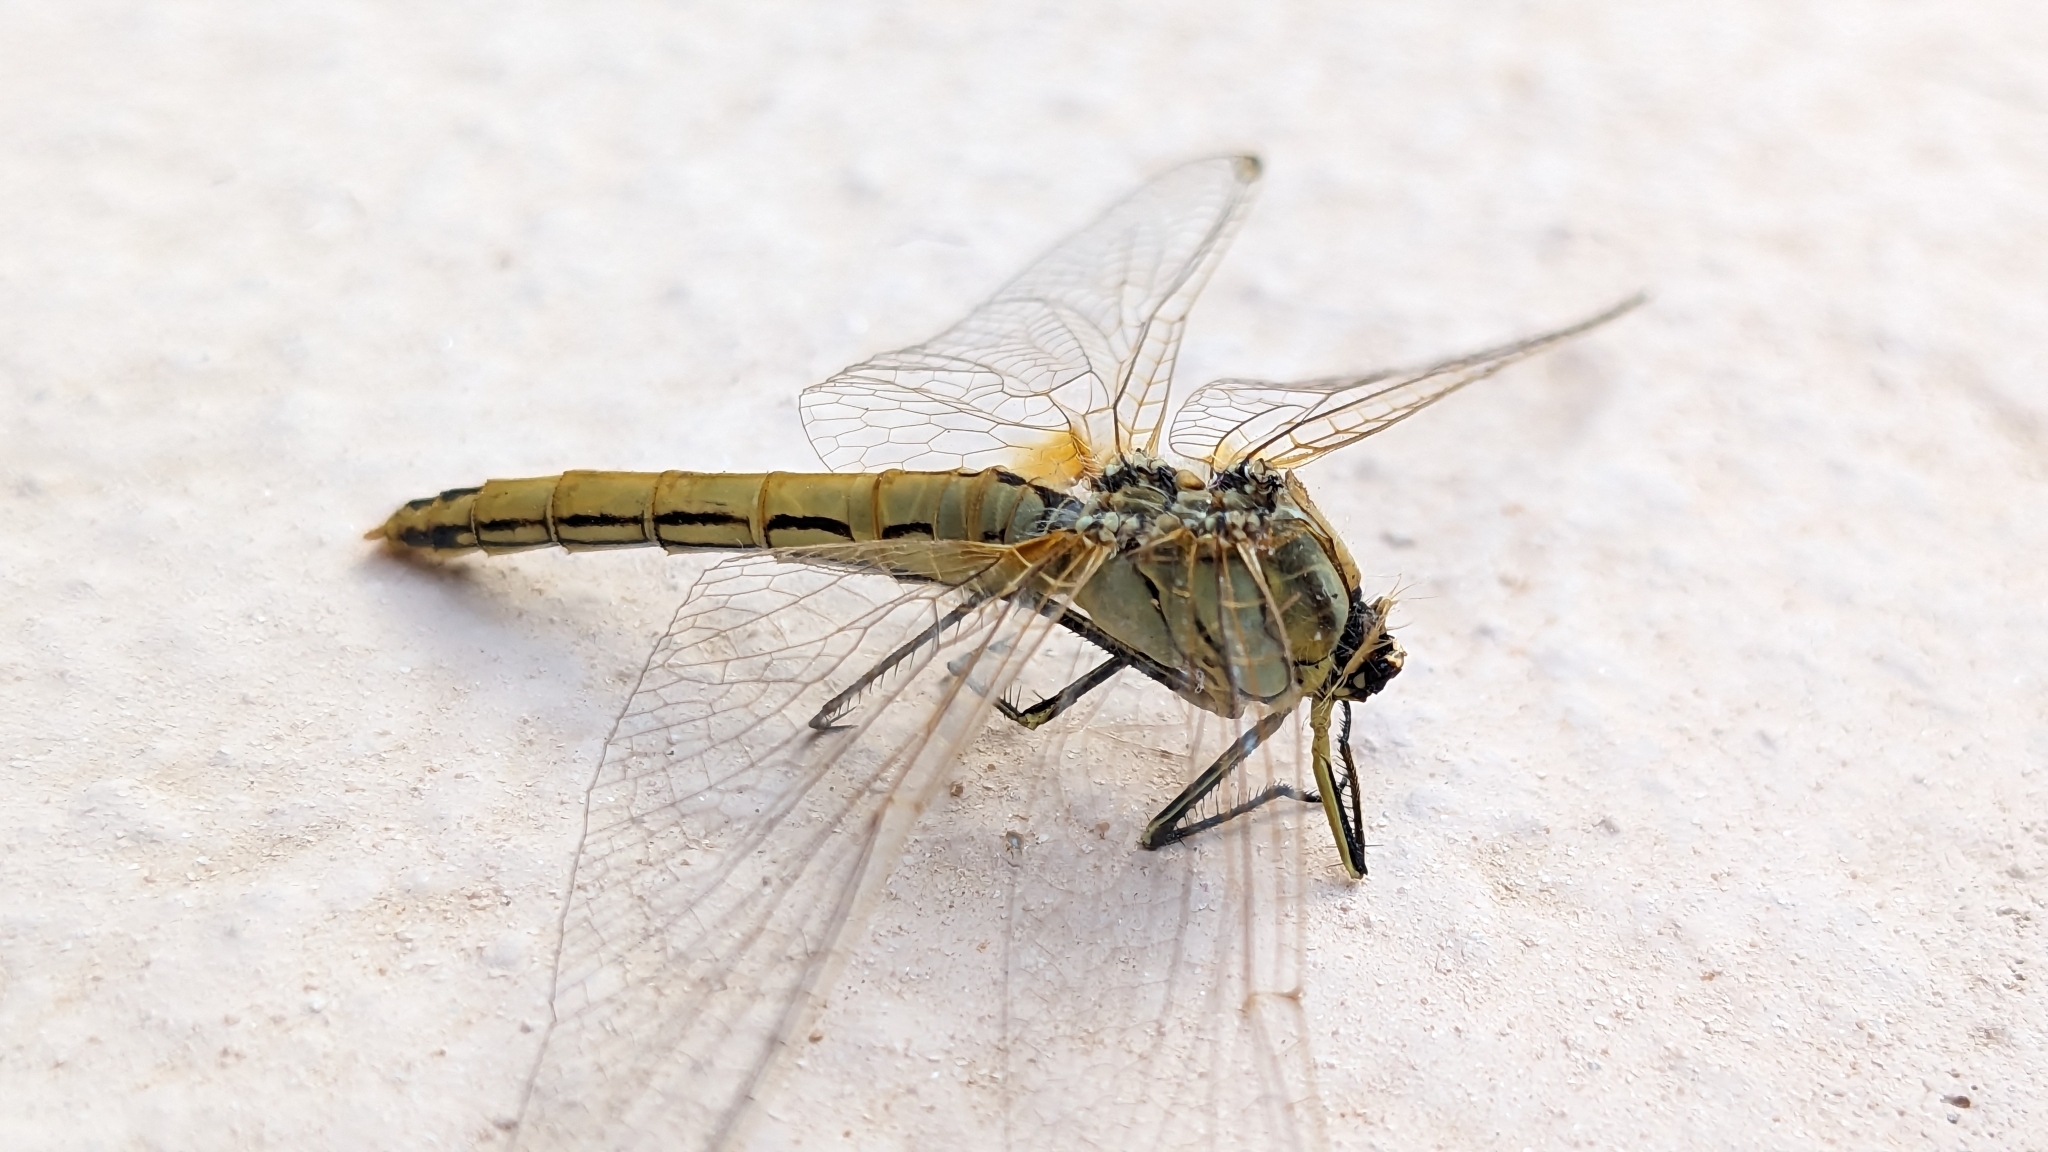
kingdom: Animalia
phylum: Arthropoda
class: Insecta
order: Odonata
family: Libellulidae
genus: Sympetrum
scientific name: Sympetrum fonscolombii
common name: Red-veined darter
